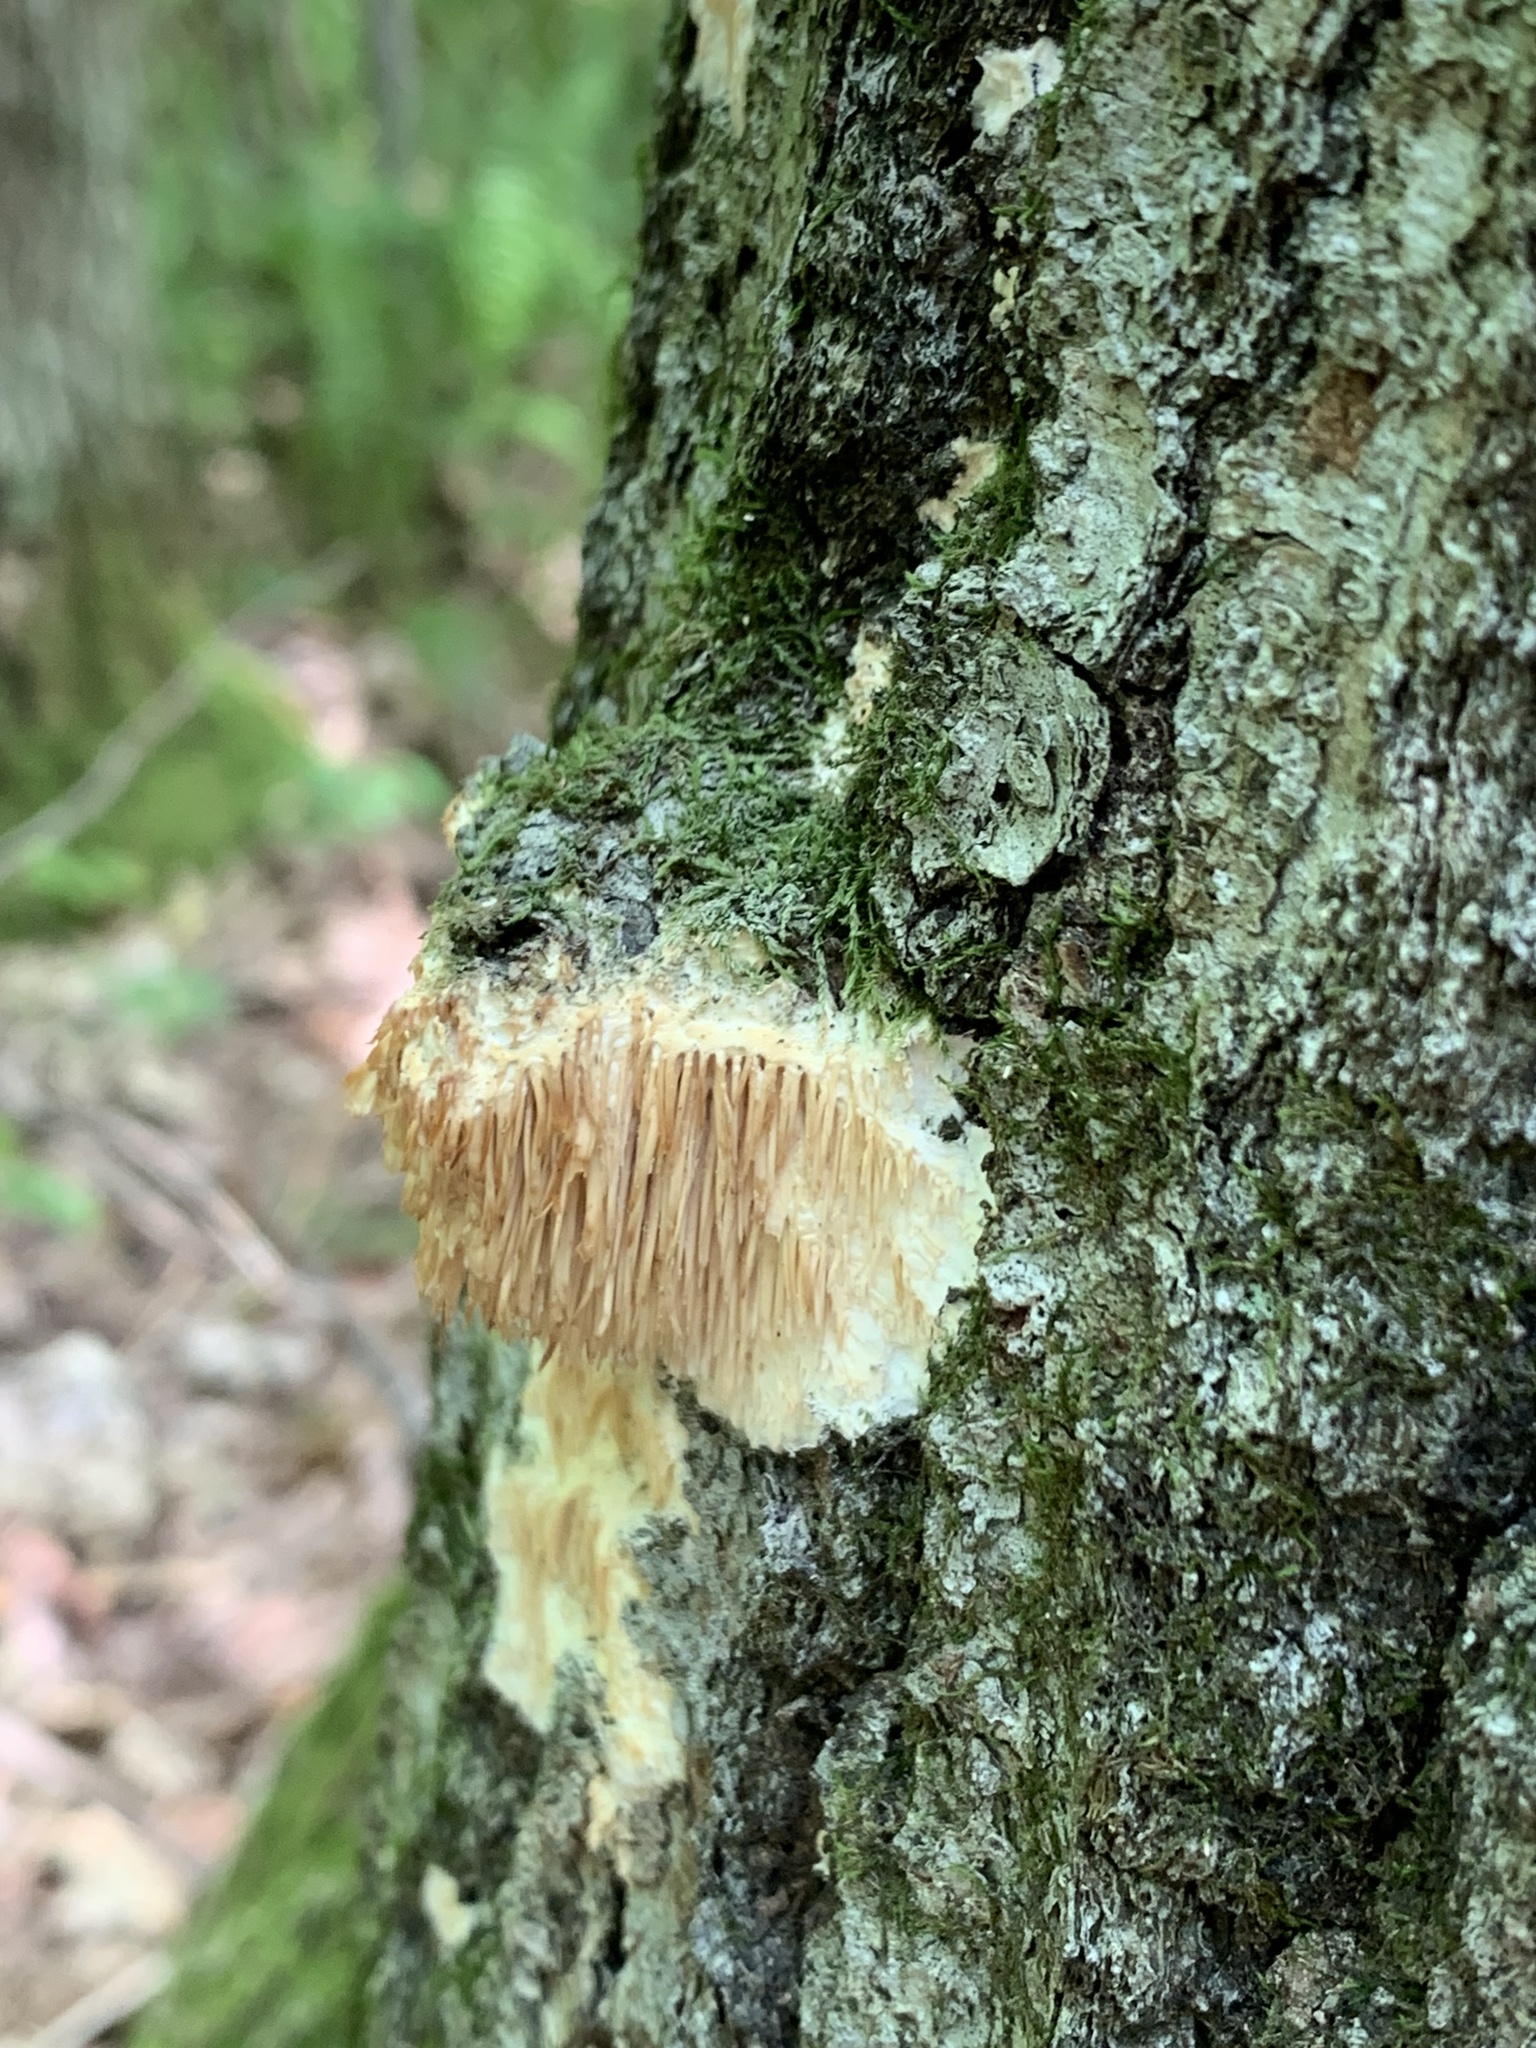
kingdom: Fungi
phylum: Basidiomycota
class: Agaricomycetes
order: Agaricales
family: Radulomycetaceae
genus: Radulomyces
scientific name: Radulomyces copelandii
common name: Asian beauty
